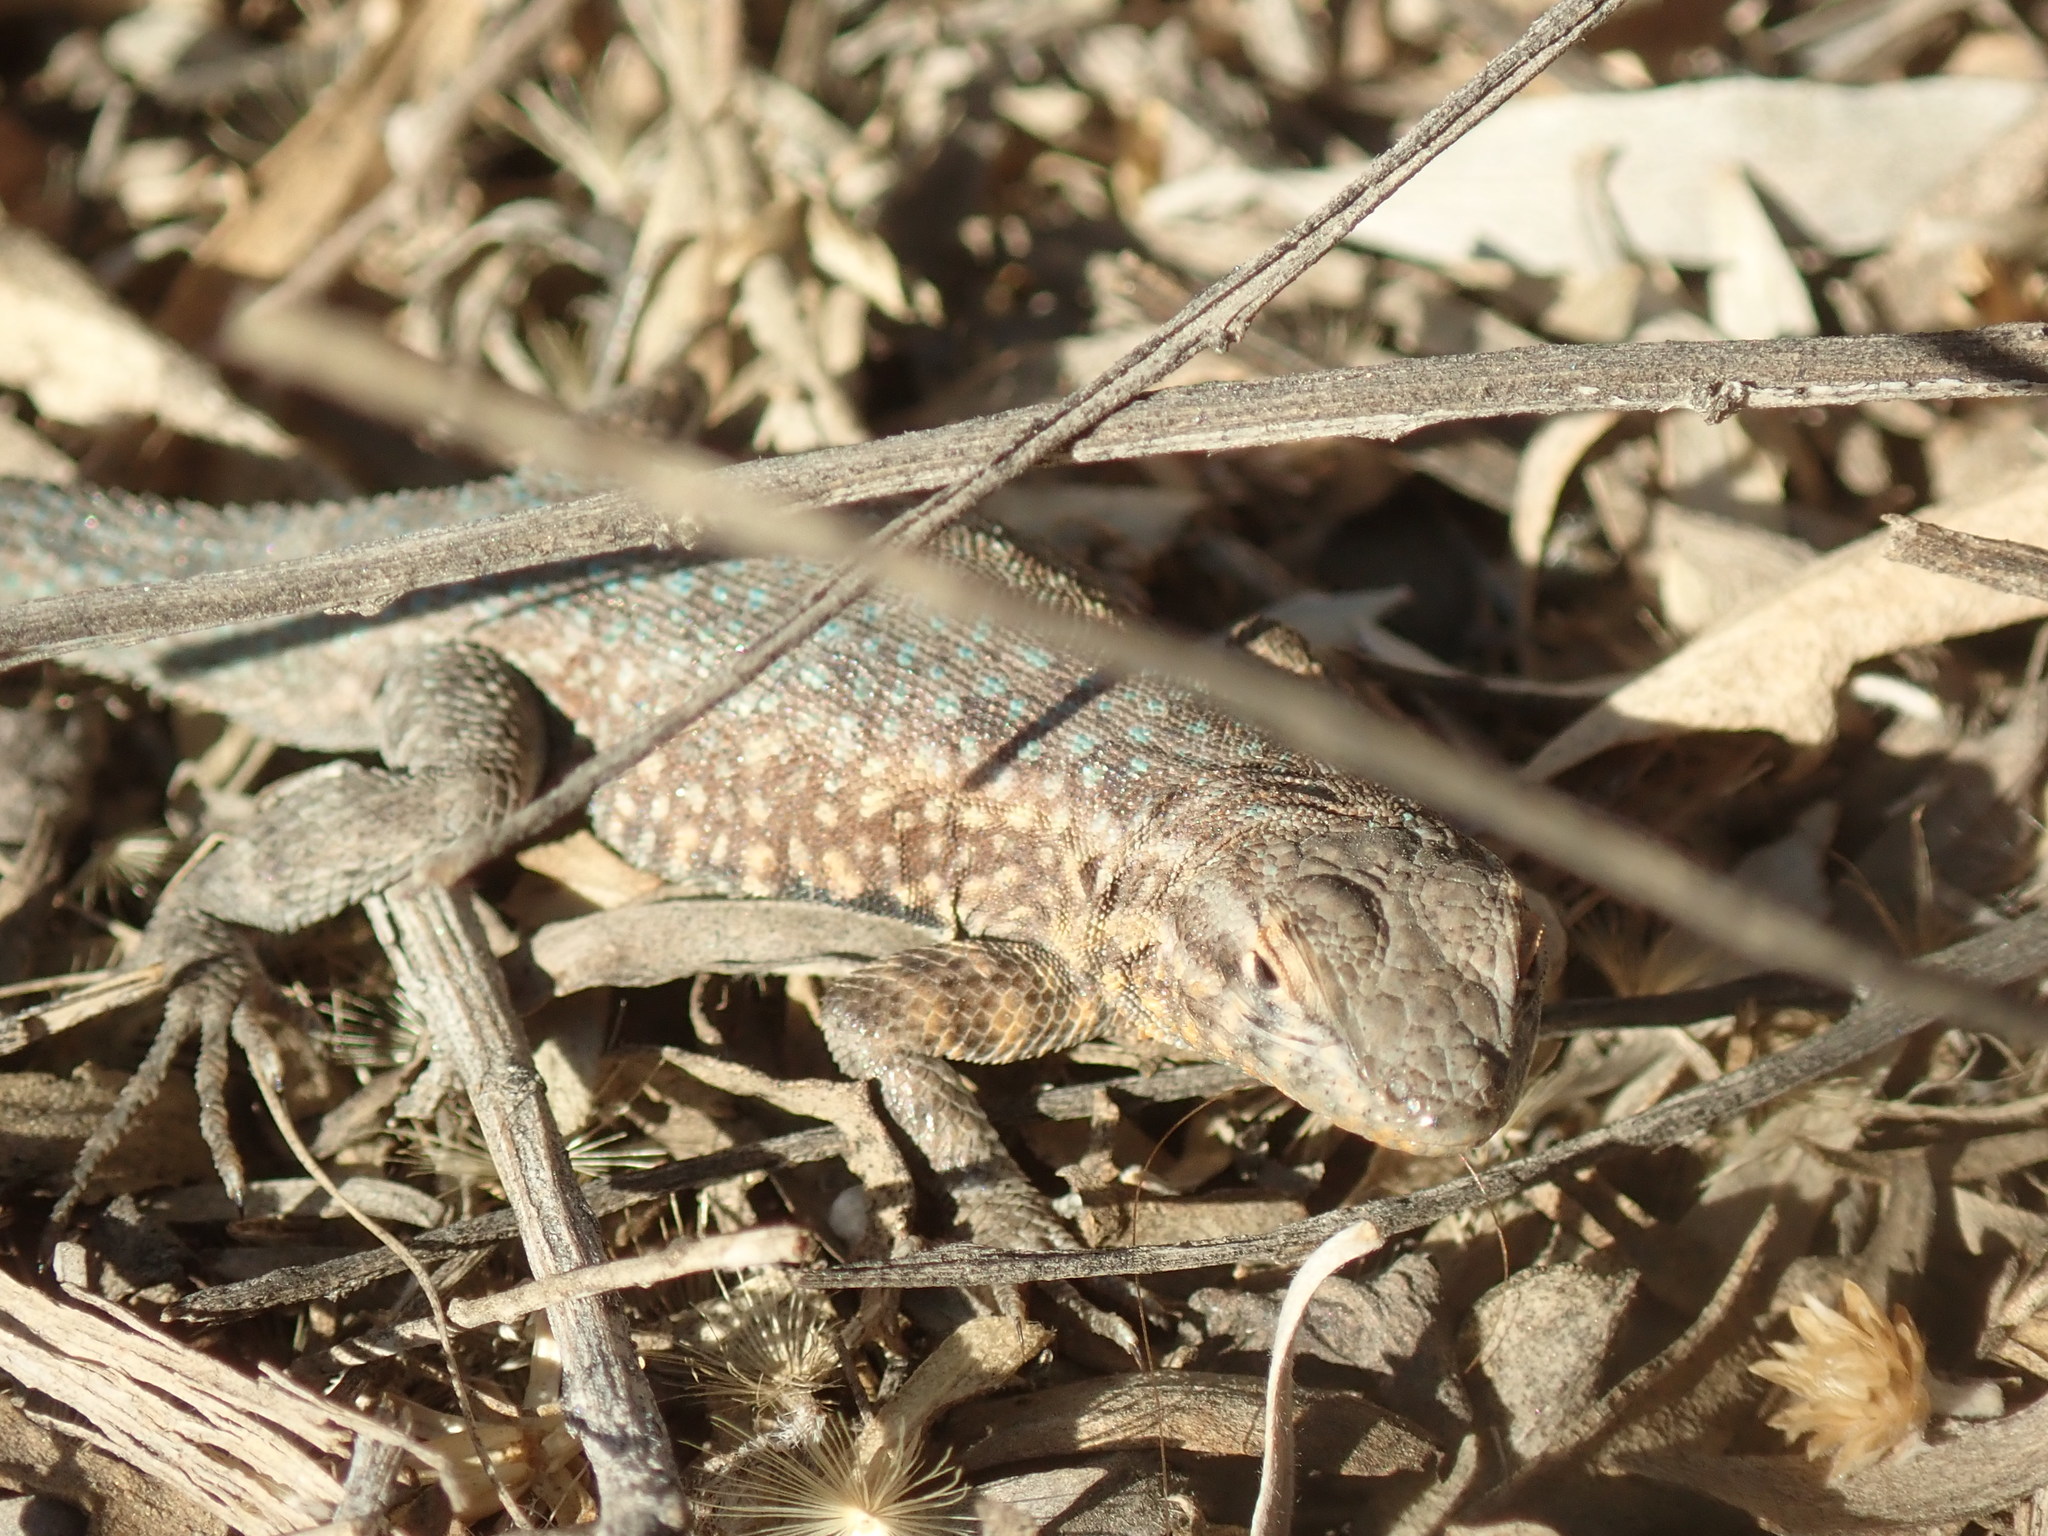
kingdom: Animalia
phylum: Chordata
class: Squamata
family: Phrynosomatidae
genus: Uta
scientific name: Uta stansburiana
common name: Side-blotched lizard
